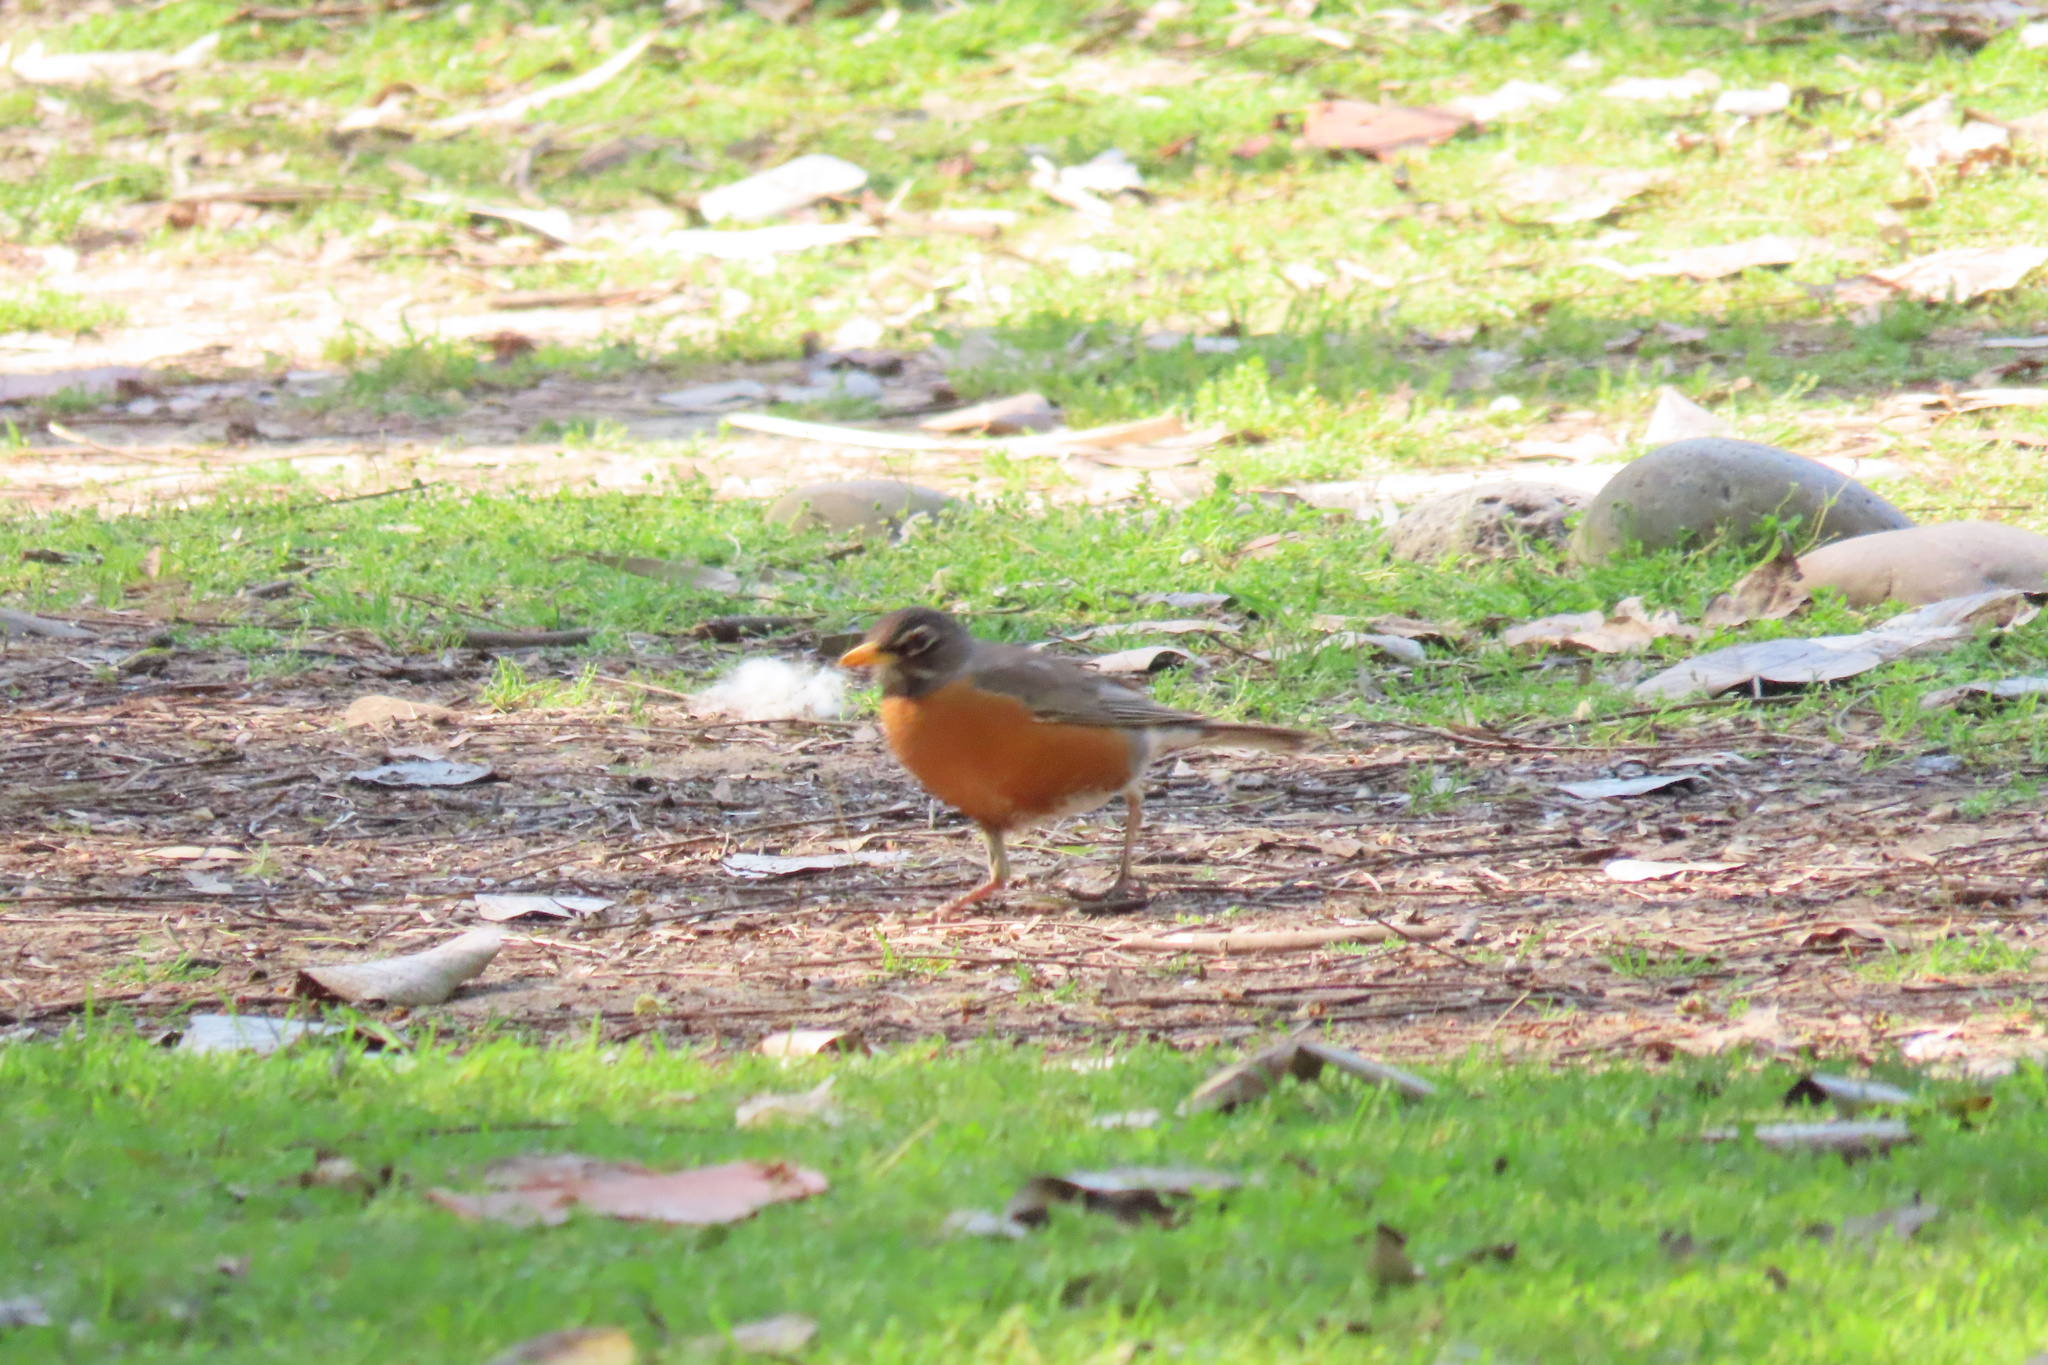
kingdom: Animalia
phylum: Chordata
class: Aves
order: Passeriformes
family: Turdidae
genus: Turdus
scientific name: Turdus migratorius
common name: American robin
